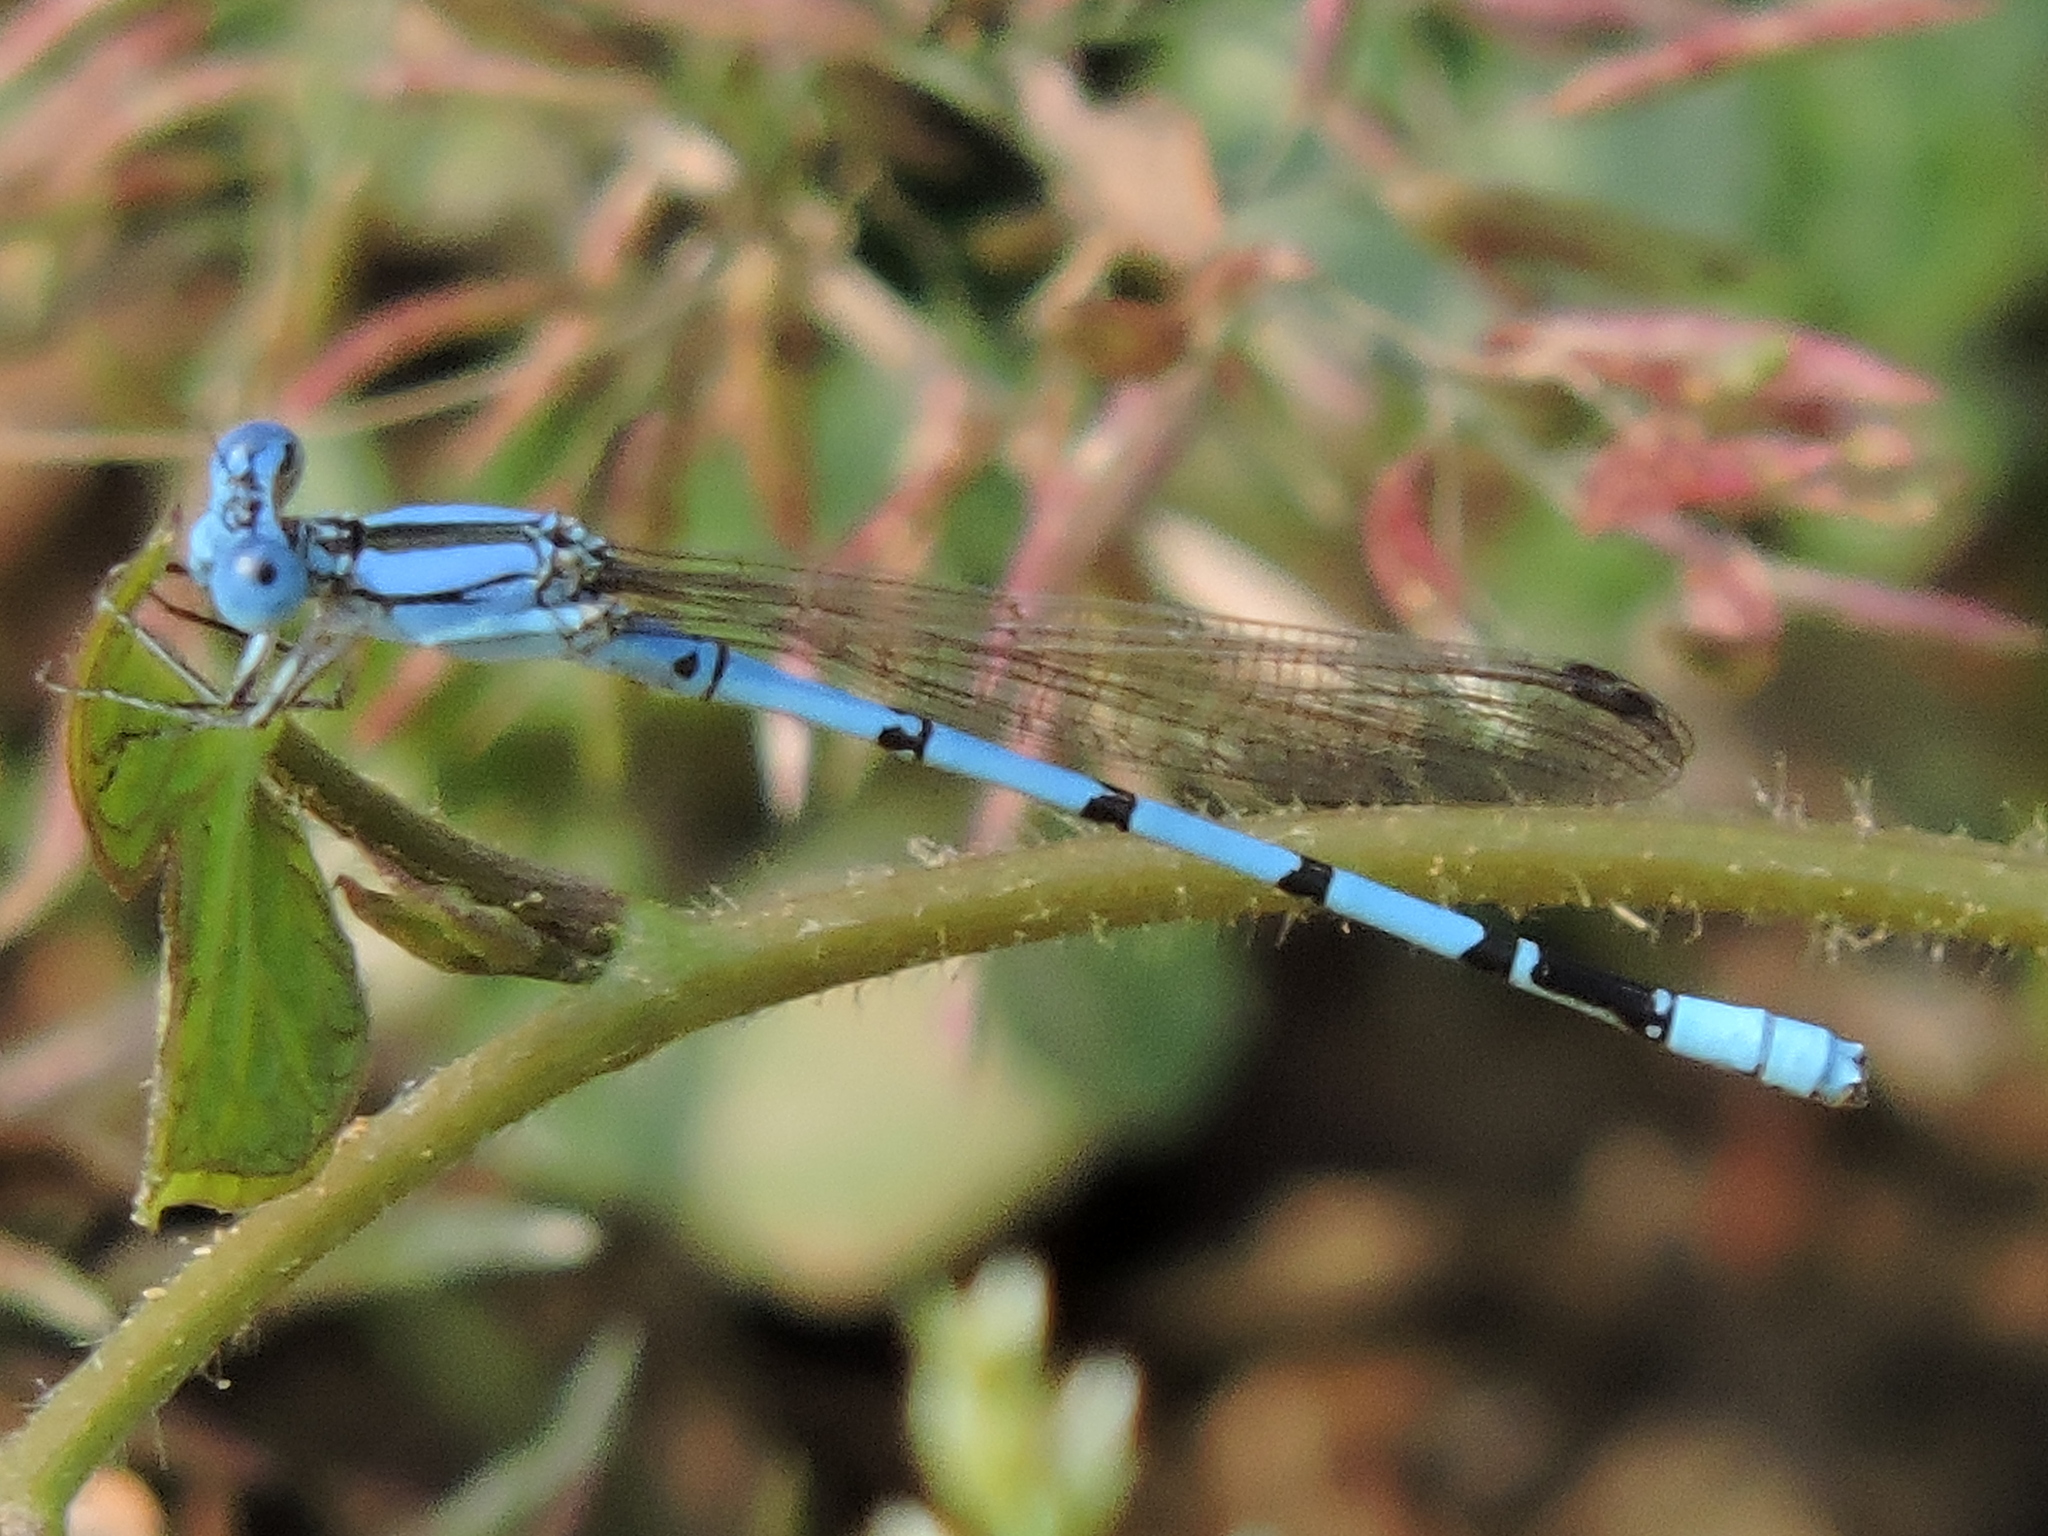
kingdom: Animalia
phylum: Arthropoda
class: Insecta
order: Odonata
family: Coenagrionidae
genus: Argia
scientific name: Argia nahuana
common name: Aztec dancer
